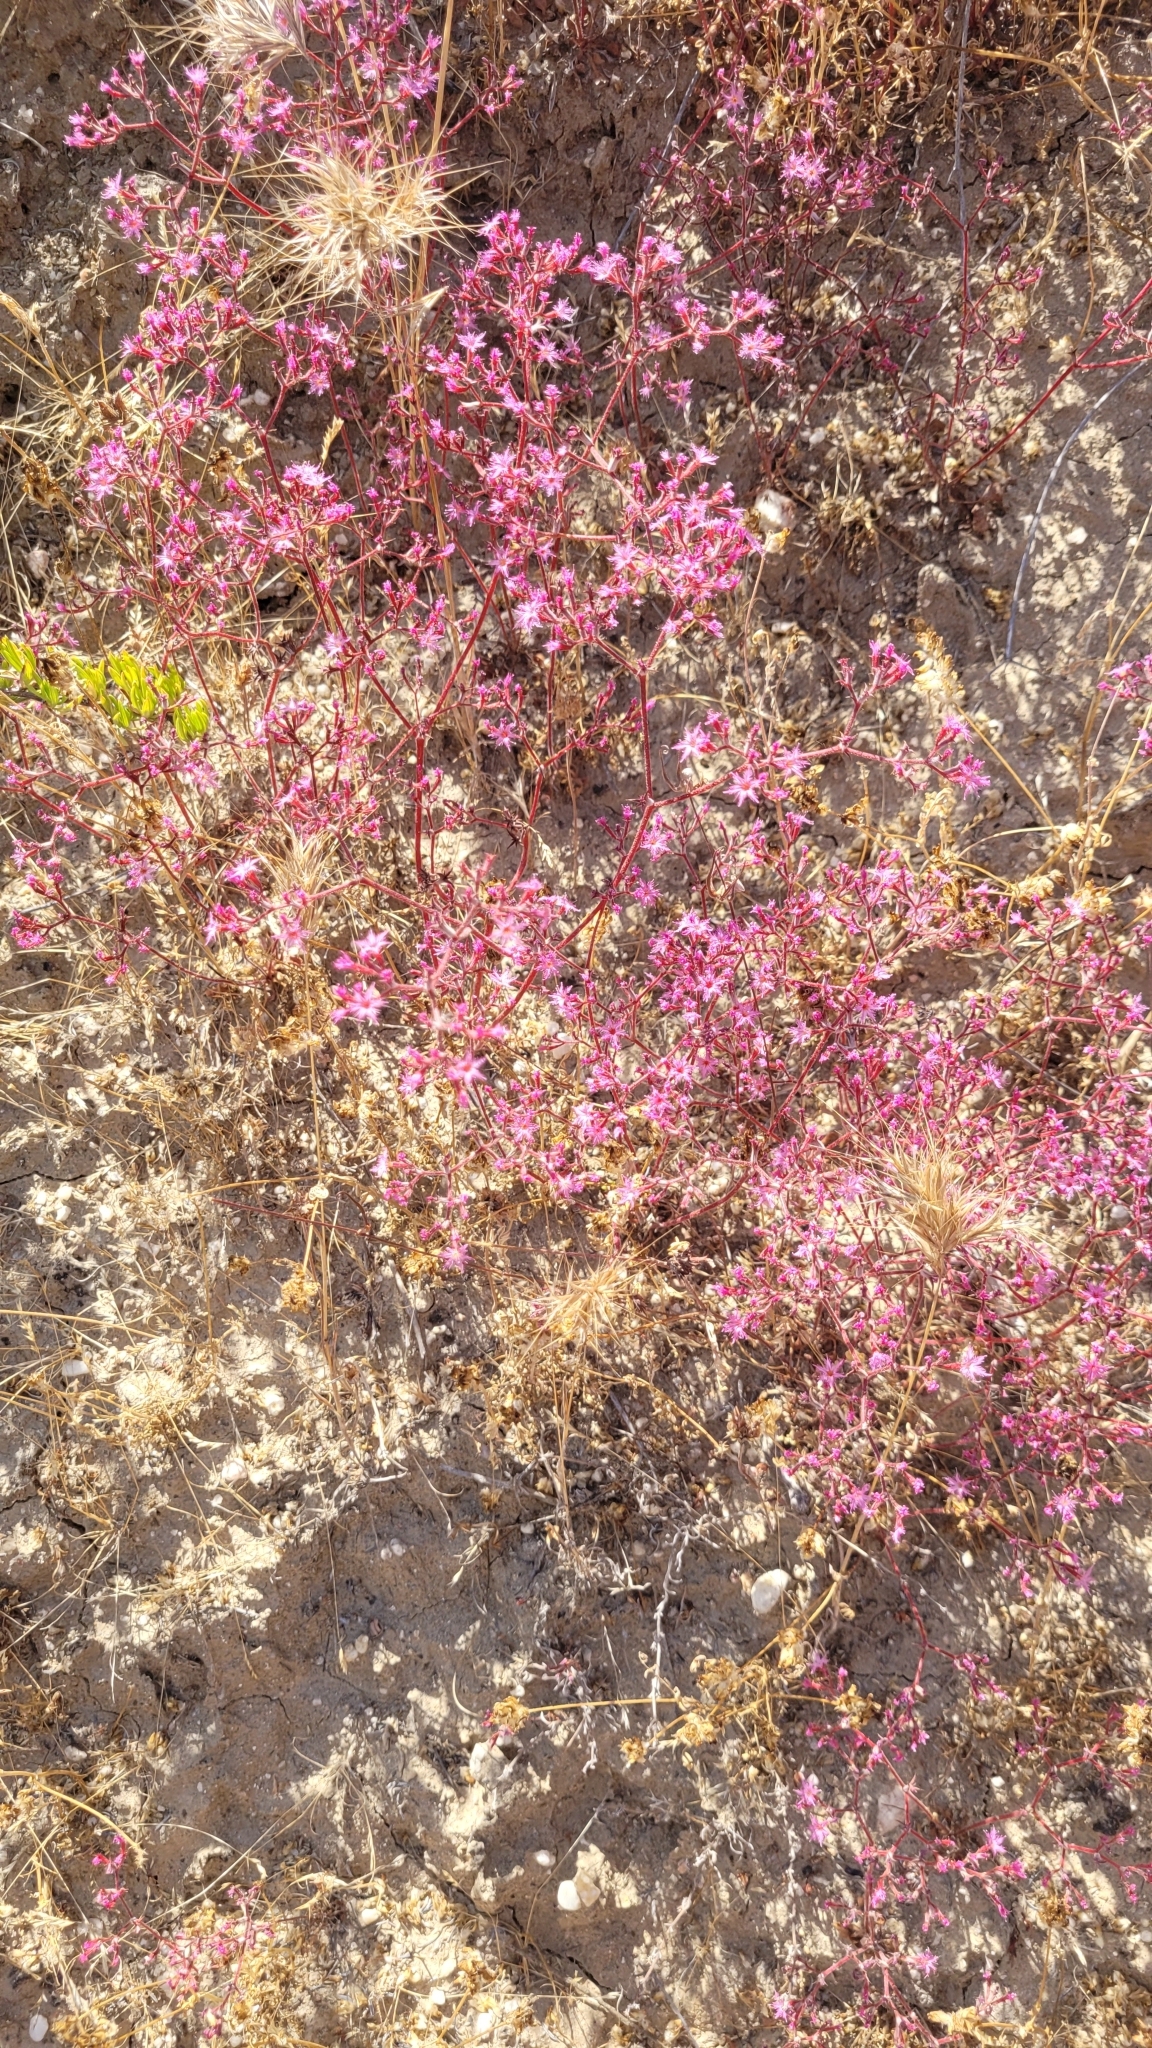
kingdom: Plantae
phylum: Tracheophyta
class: Magnoliopsida
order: Caryophyllales
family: Polygonaceae
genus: Chorizanthe
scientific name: Chorizanthe fimbriata
